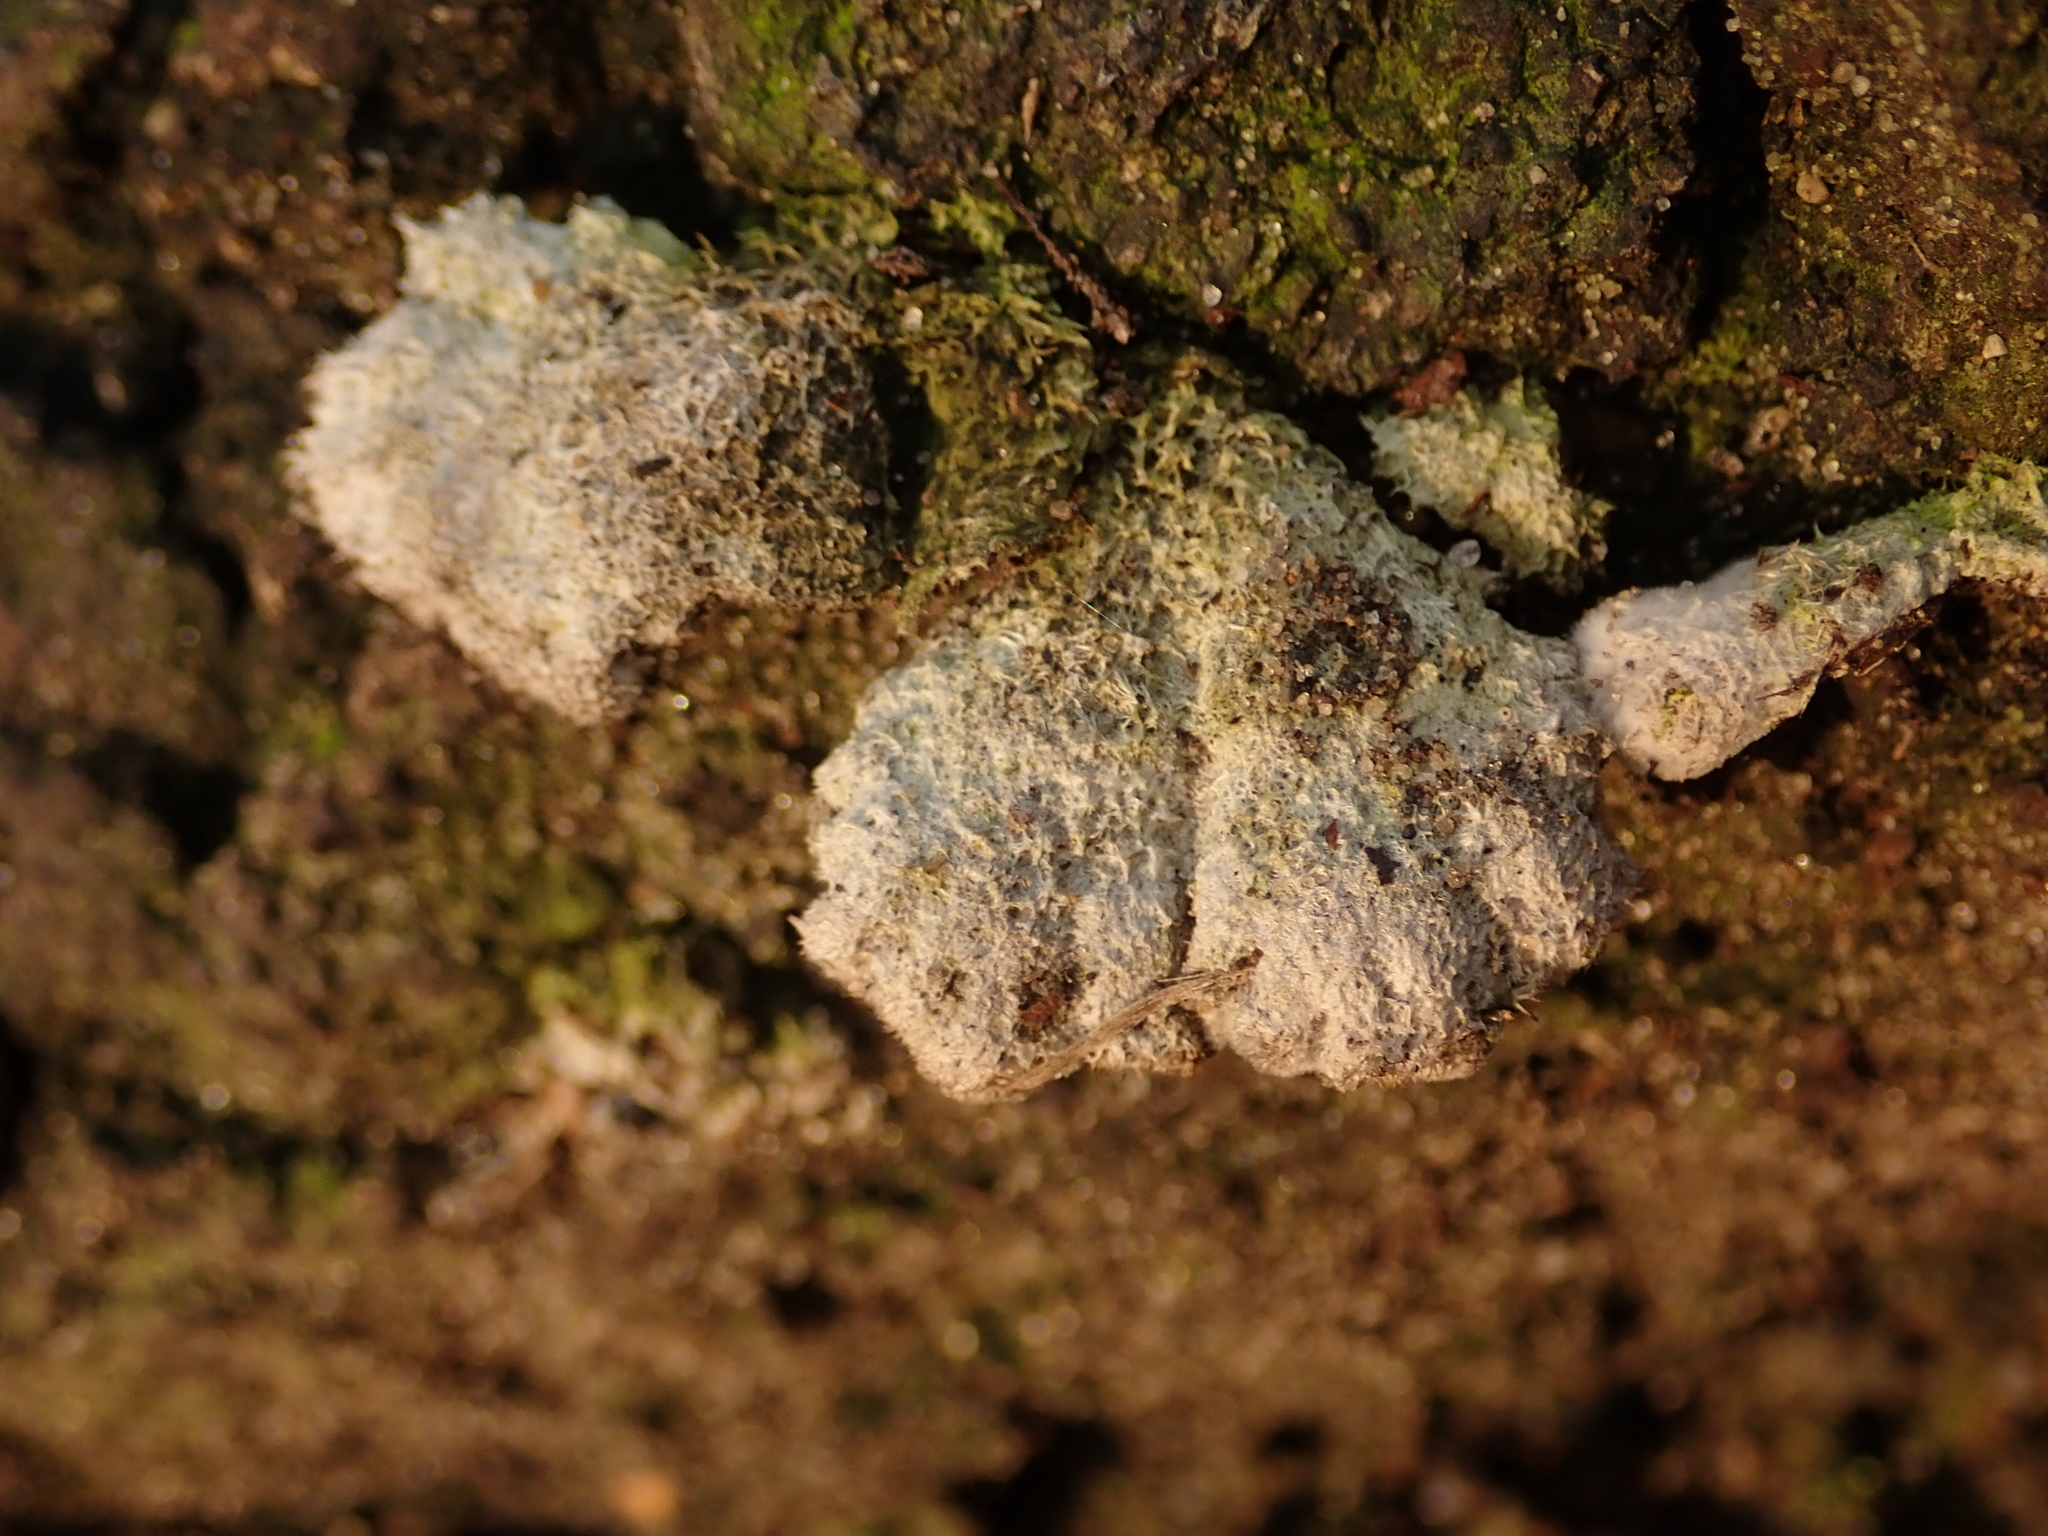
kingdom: Fungi
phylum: Basidiomycota
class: Agaricomycetes
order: Agaricales
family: Schizophyllaceae
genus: Schizophyllum
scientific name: Schizophyllum commune
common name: Common porecrust
